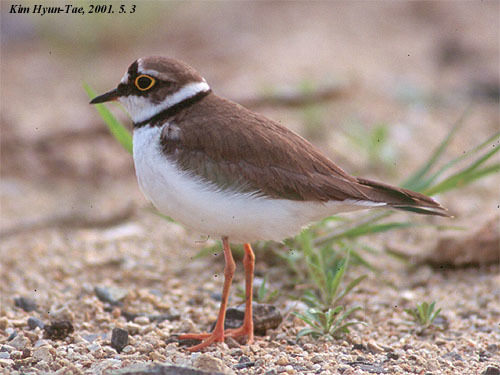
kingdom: Animalia
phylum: Chordata
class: Aves
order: Charadriiformes
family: Charadriidae
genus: Charadrius
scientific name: Charadrius dubius
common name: Little ringed plover
